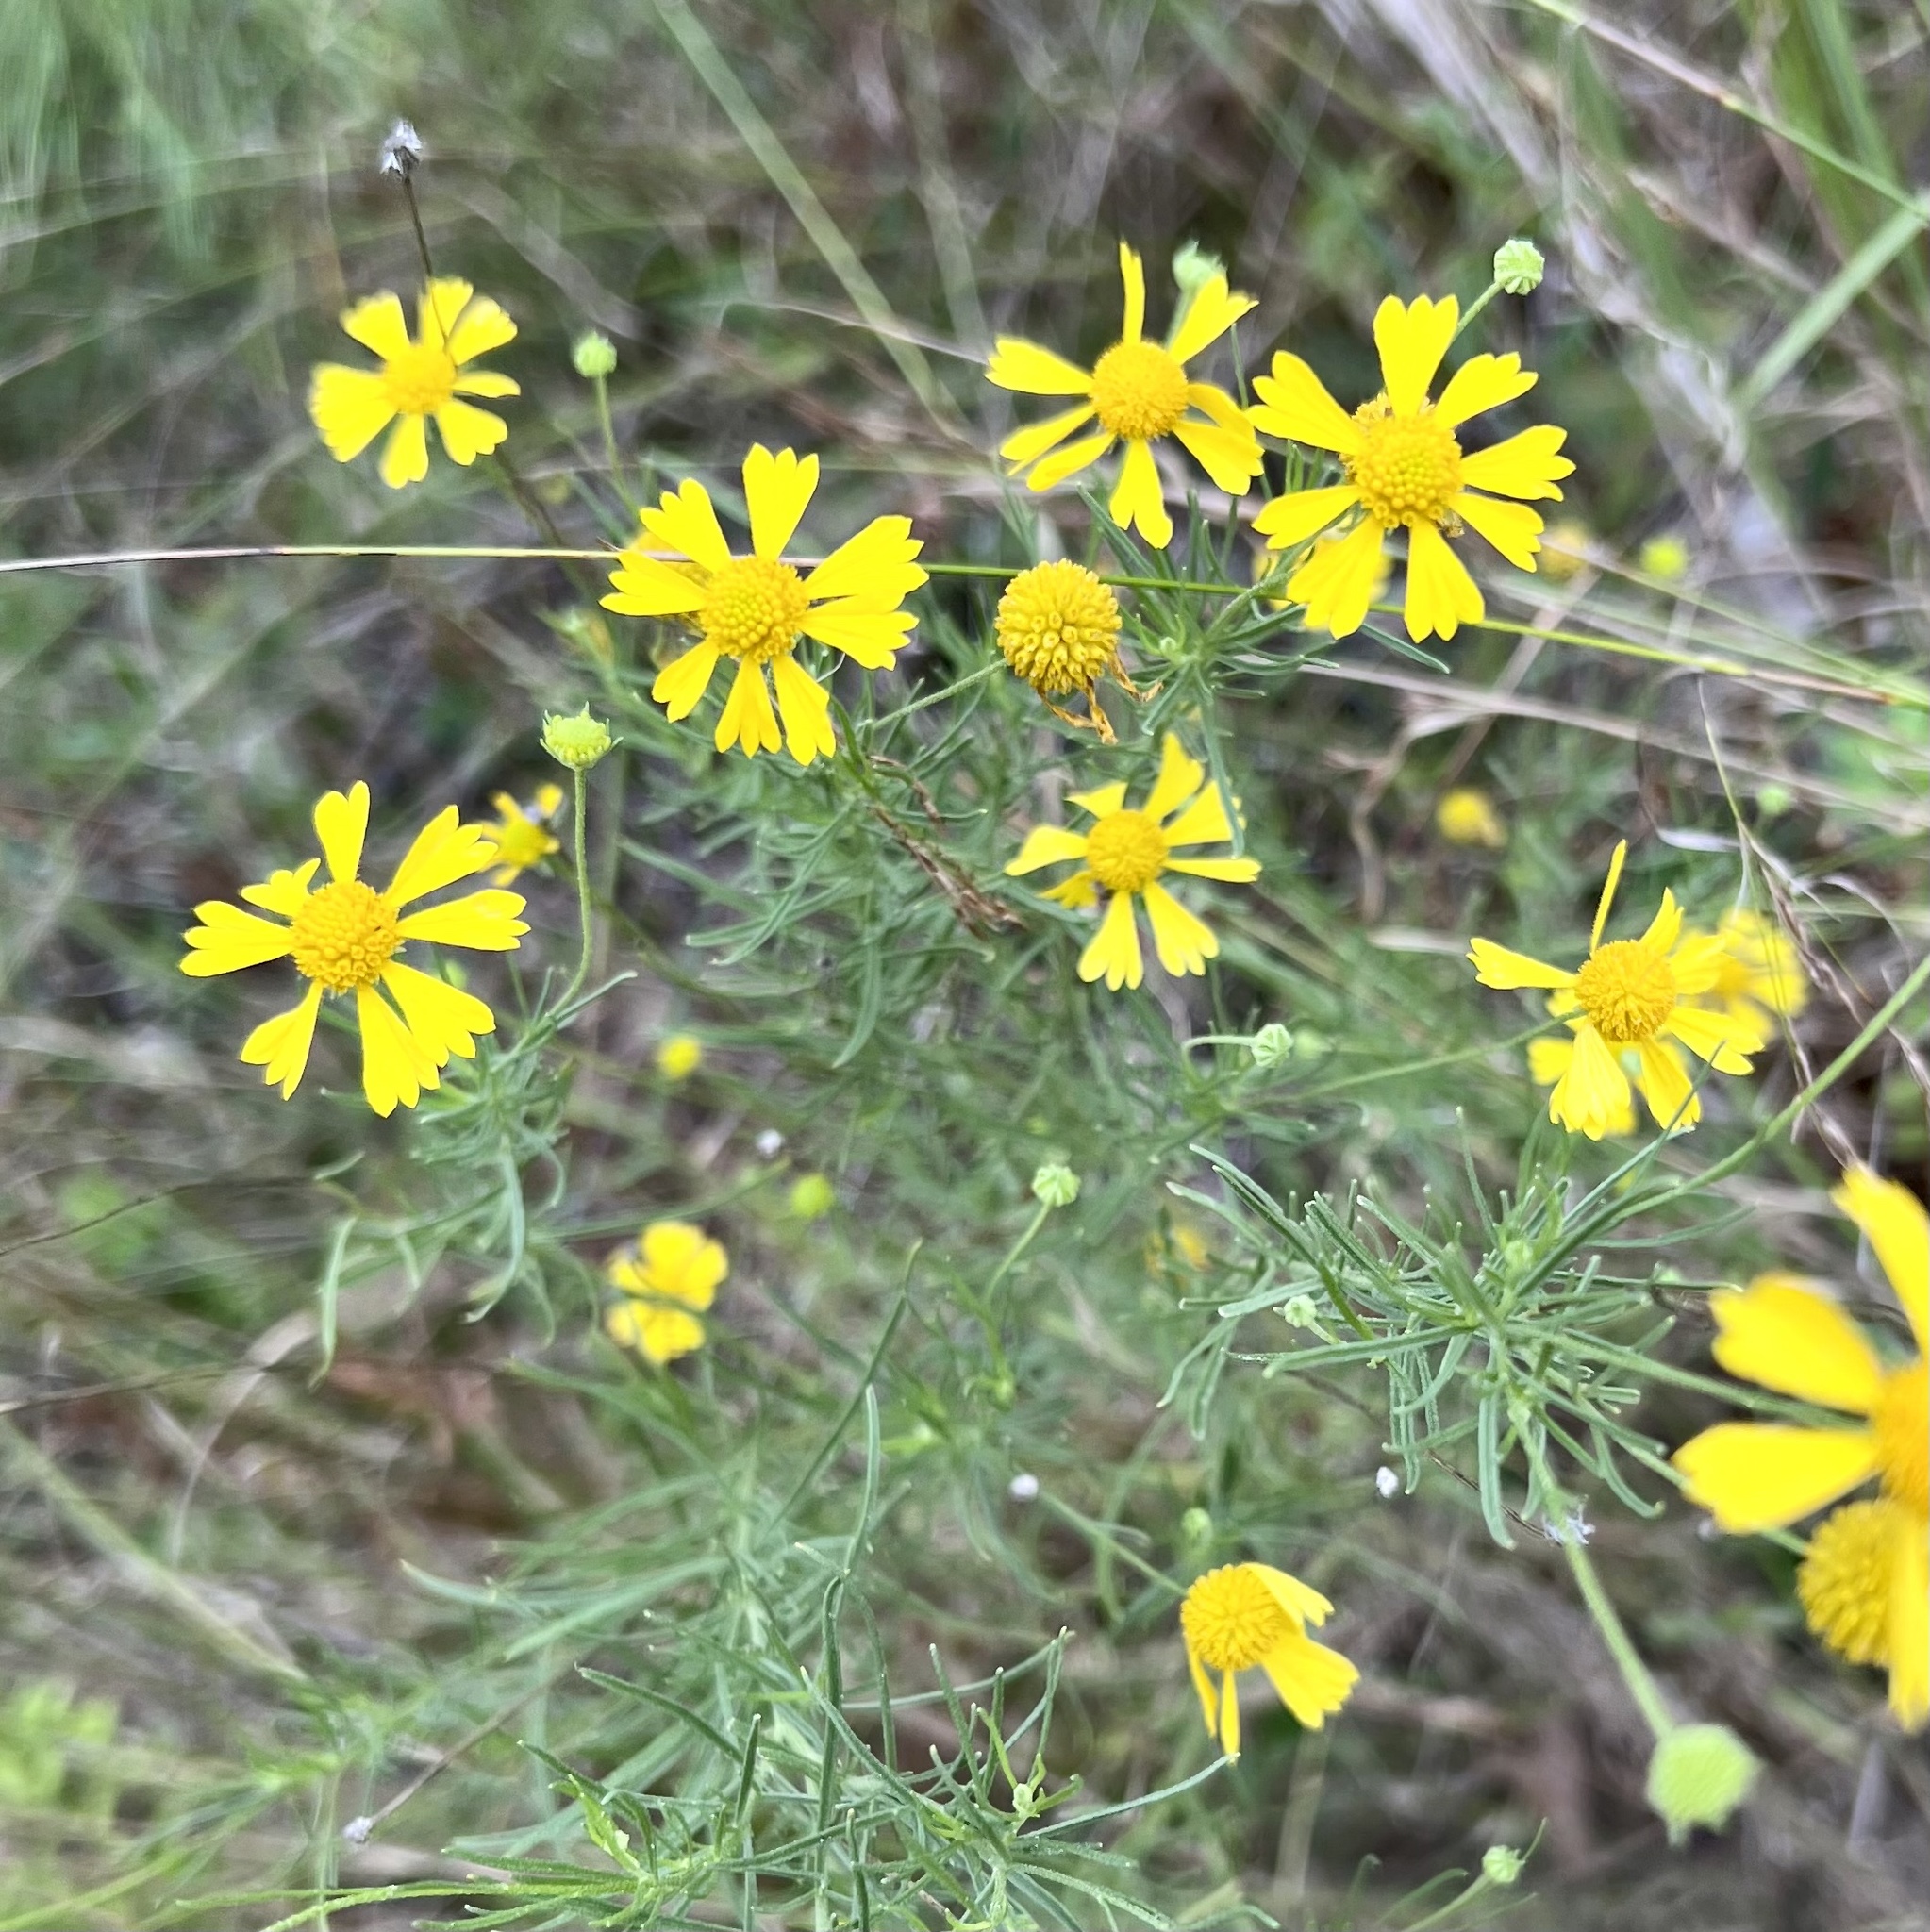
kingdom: Plantae
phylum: Tracheophyta
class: Magnoliopsida
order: Asterales
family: Asteraceae
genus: Helenium
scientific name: Helenium amarum
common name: Bitter sneezeweed
